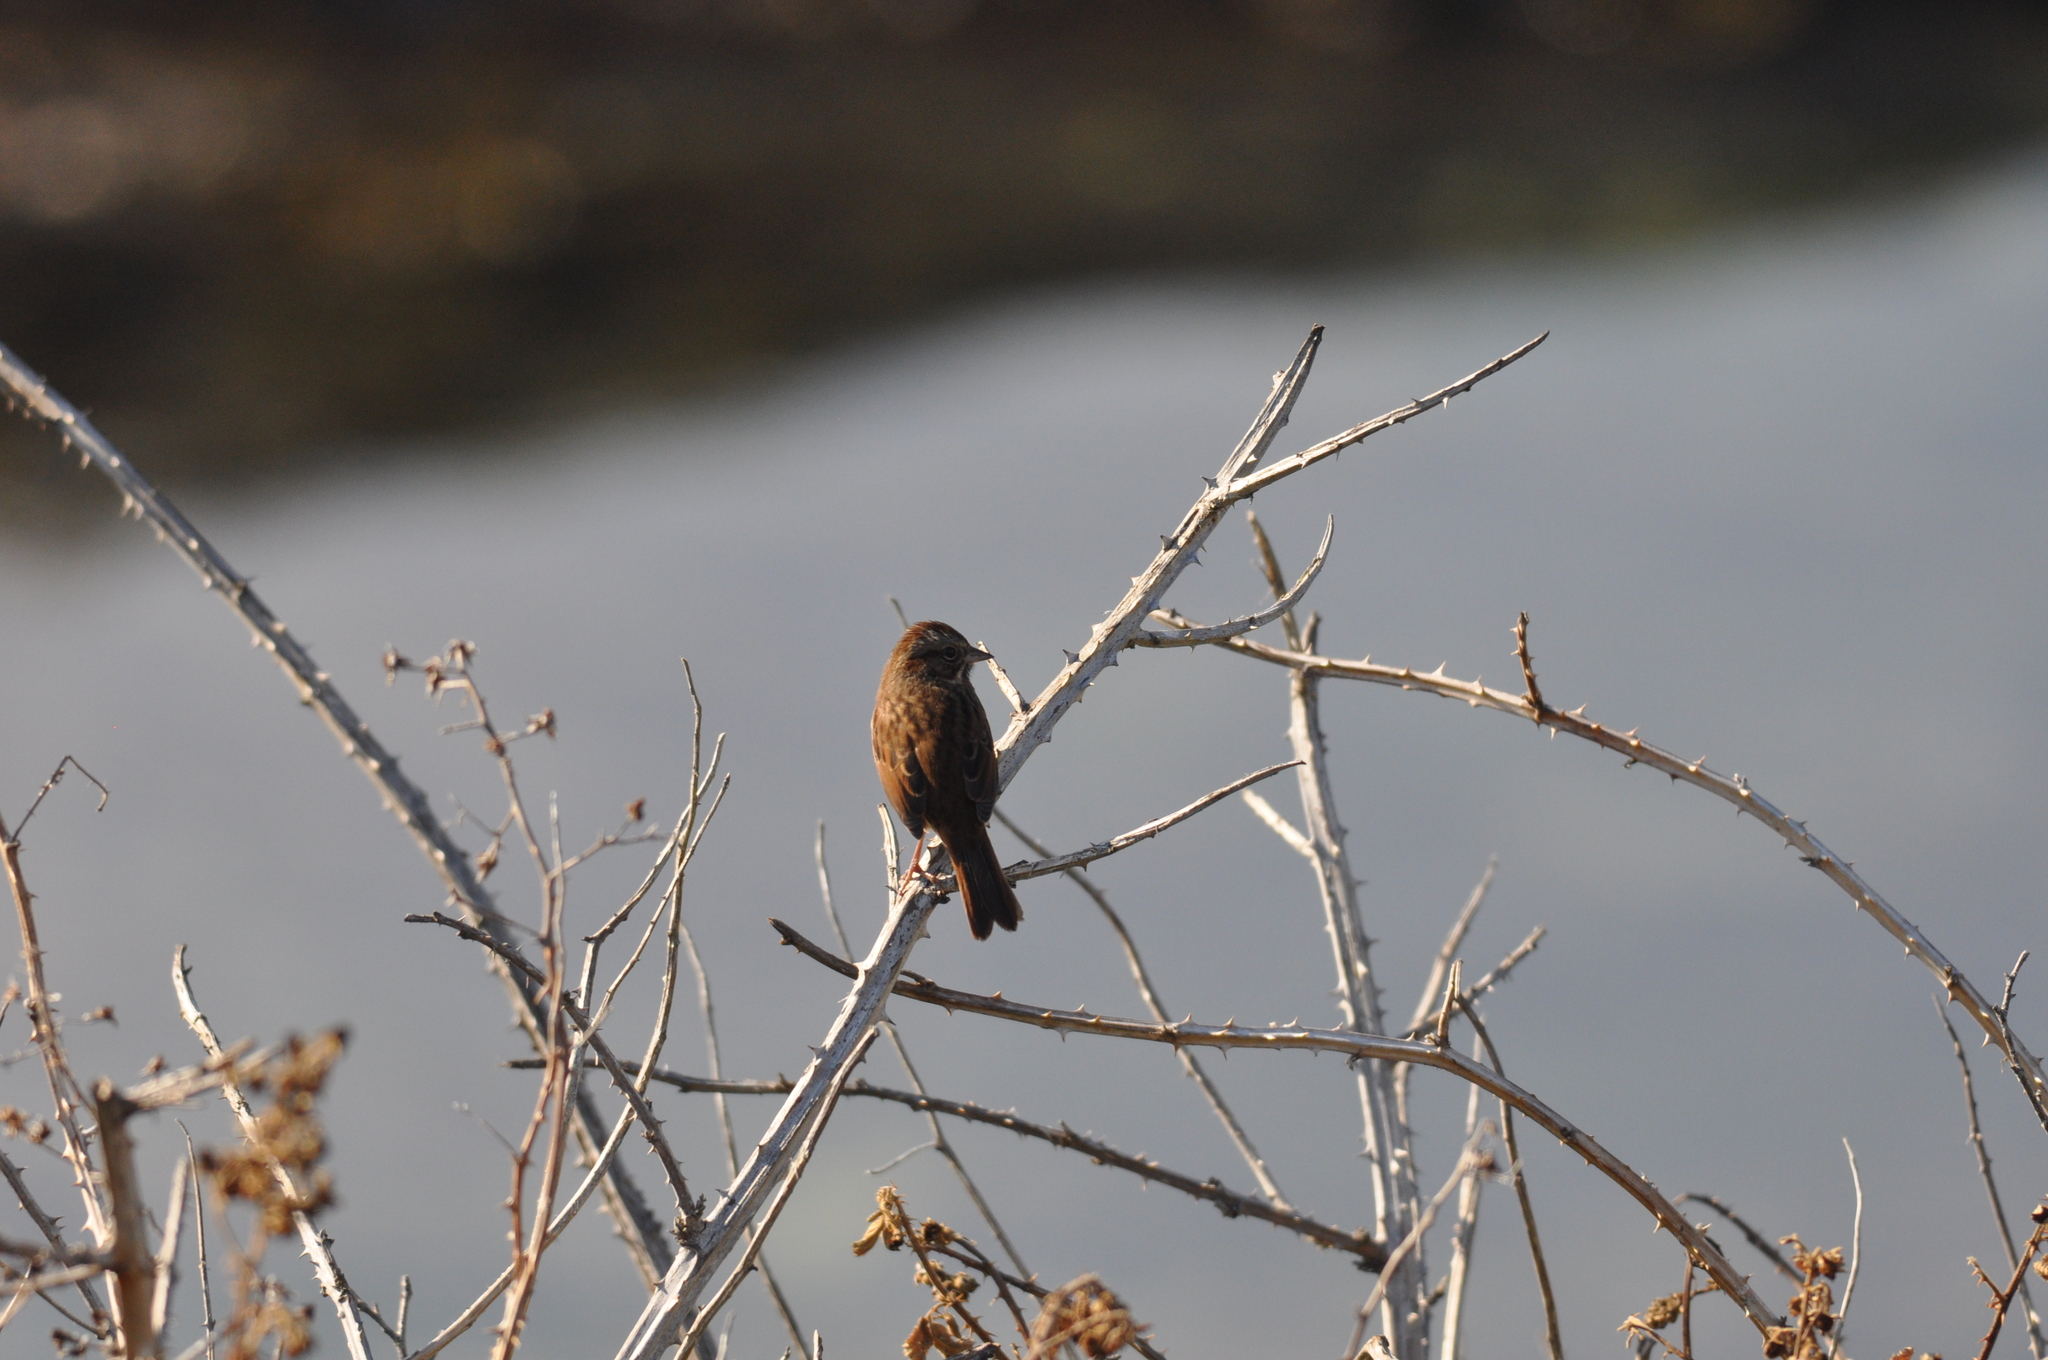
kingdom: Animalia
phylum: Chordata
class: Aves
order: Passeriformes
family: Passerellidae
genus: Melospiza
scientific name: Melospiza melodia
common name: Song sparrow
